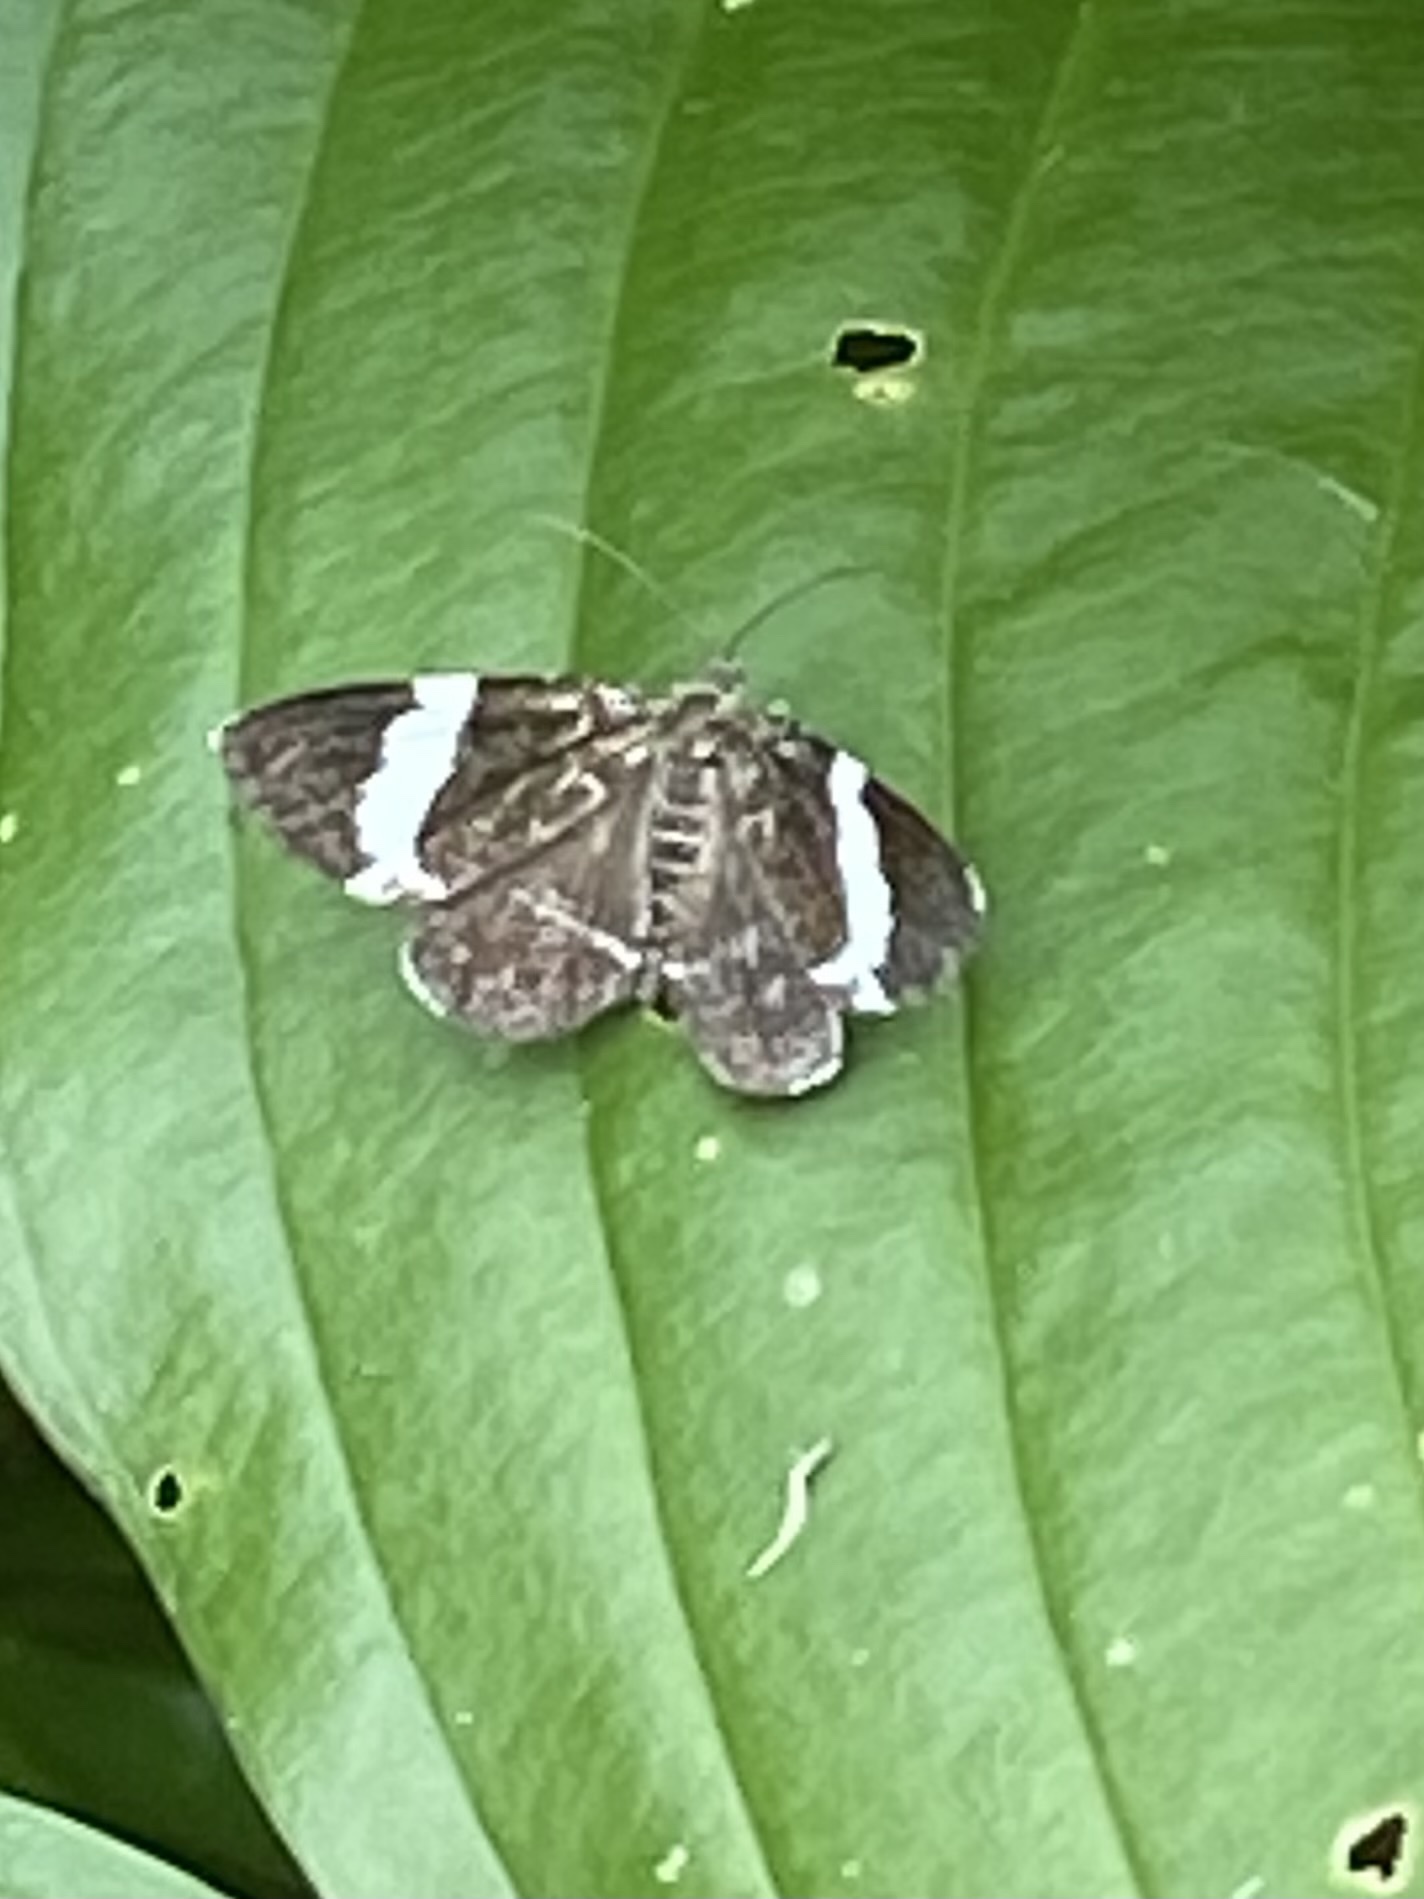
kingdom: Animalia
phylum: Arthropoda
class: Insecta
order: Lepidoptera
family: Geometridae
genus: Trichodezia
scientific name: Trichodezia albovittata
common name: White striped black
